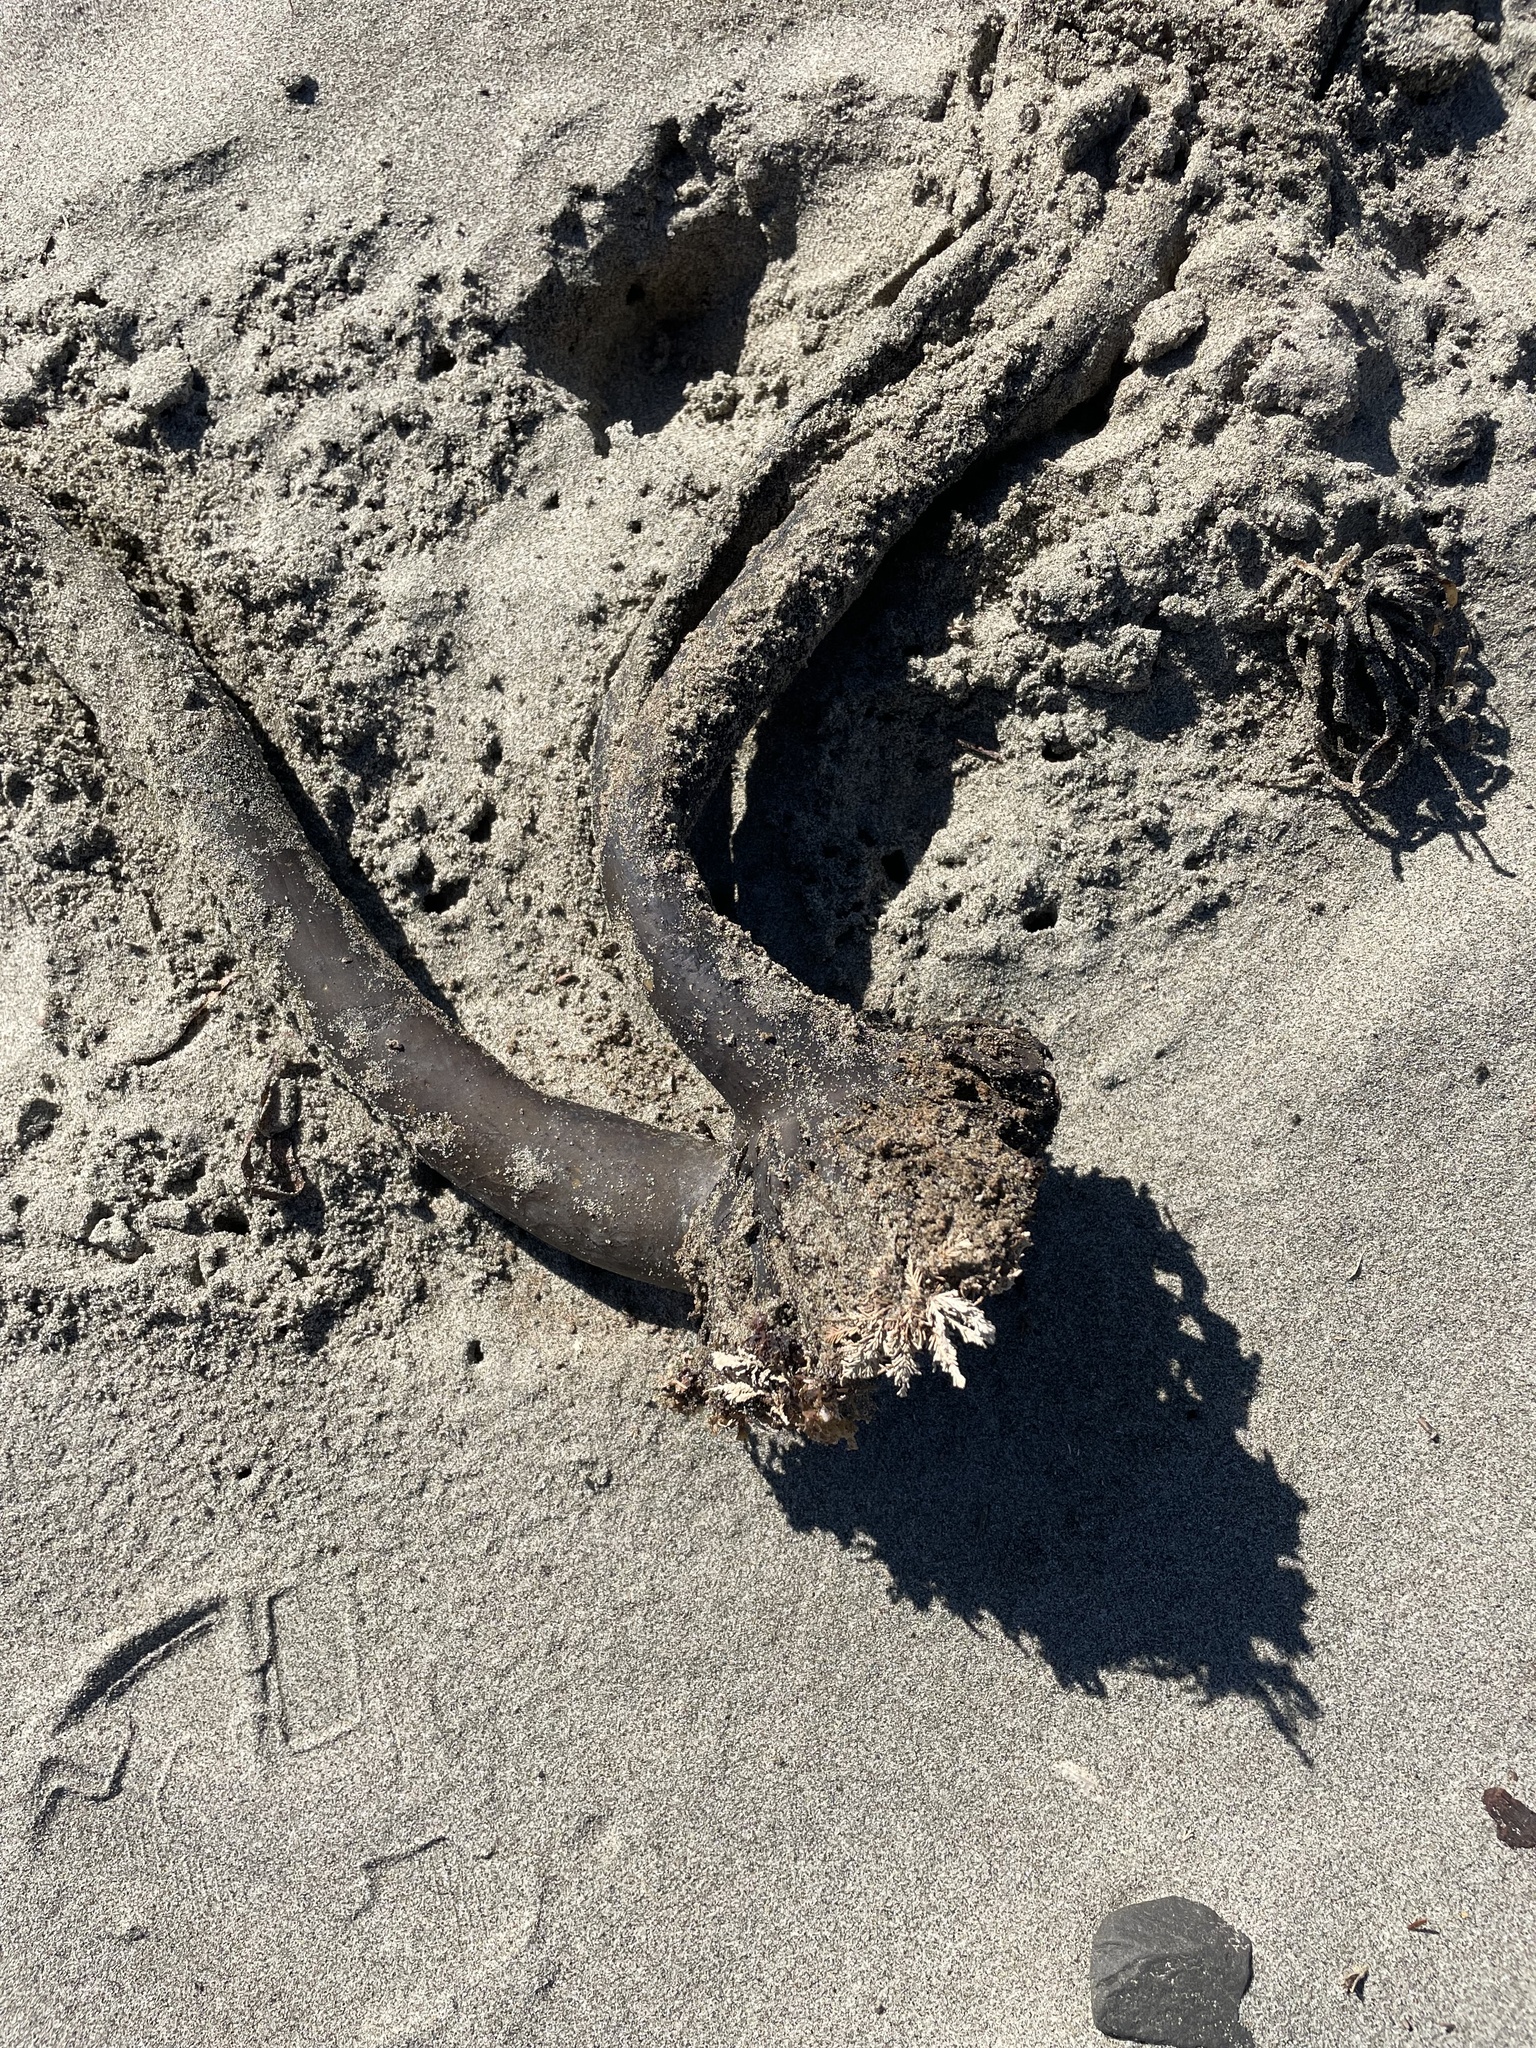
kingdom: Chromista
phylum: Ochrophyta
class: Phaeophyceae
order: Laminariales
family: Laminariaceae
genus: Postelsia
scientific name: Postelsia palmiformis
